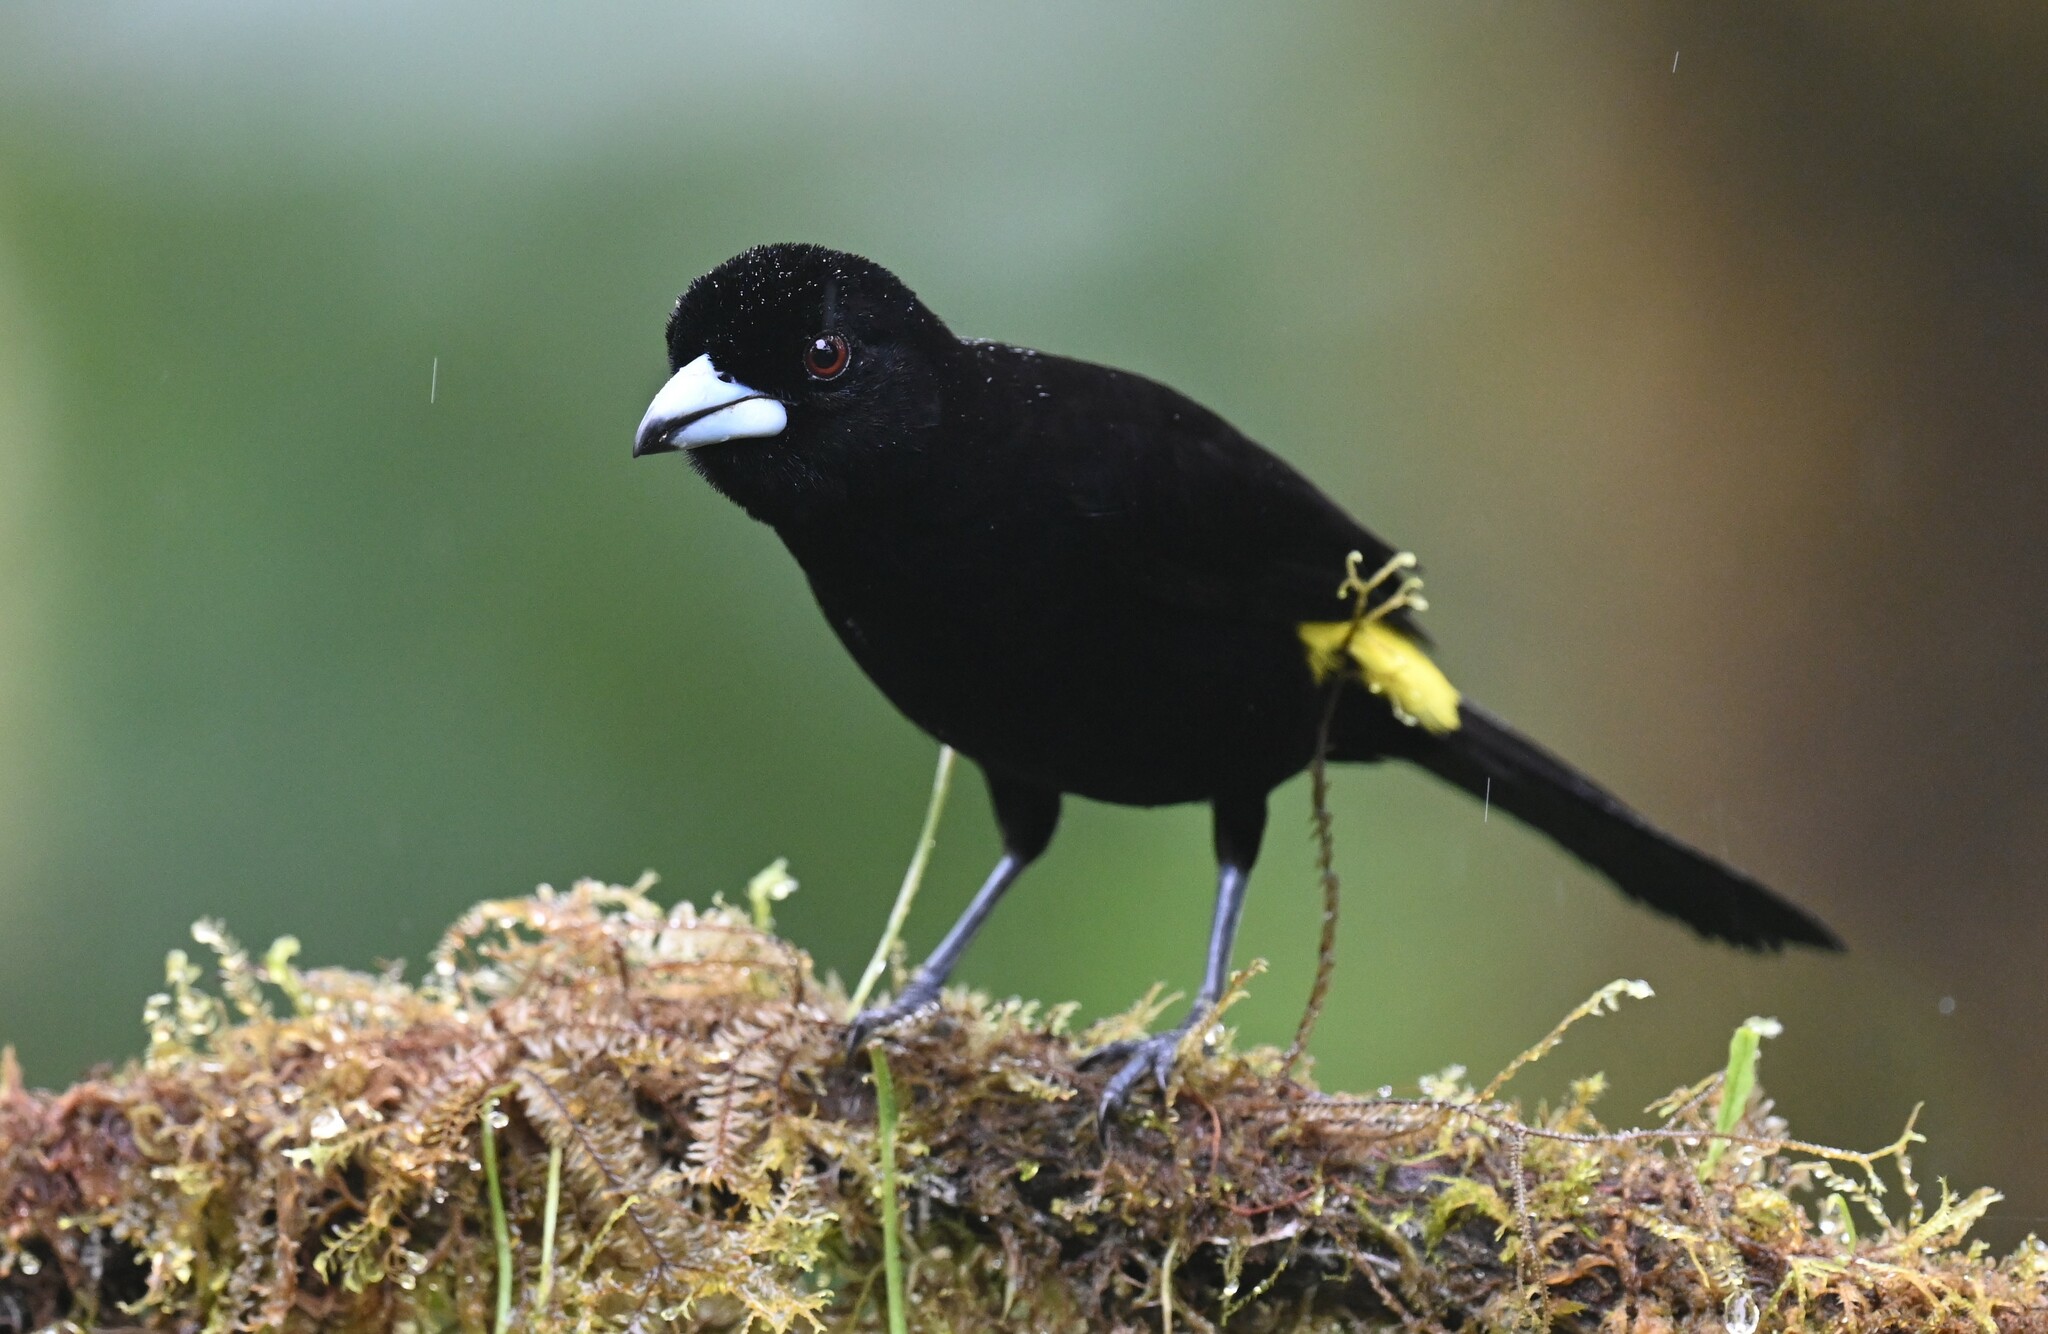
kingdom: Animalia
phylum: Chordata
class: Aves
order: Passeriformes
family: Thraupidae
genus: Ramphocelus
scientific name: Ramphocelus flammigerus
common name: Flame-rumped tanager
